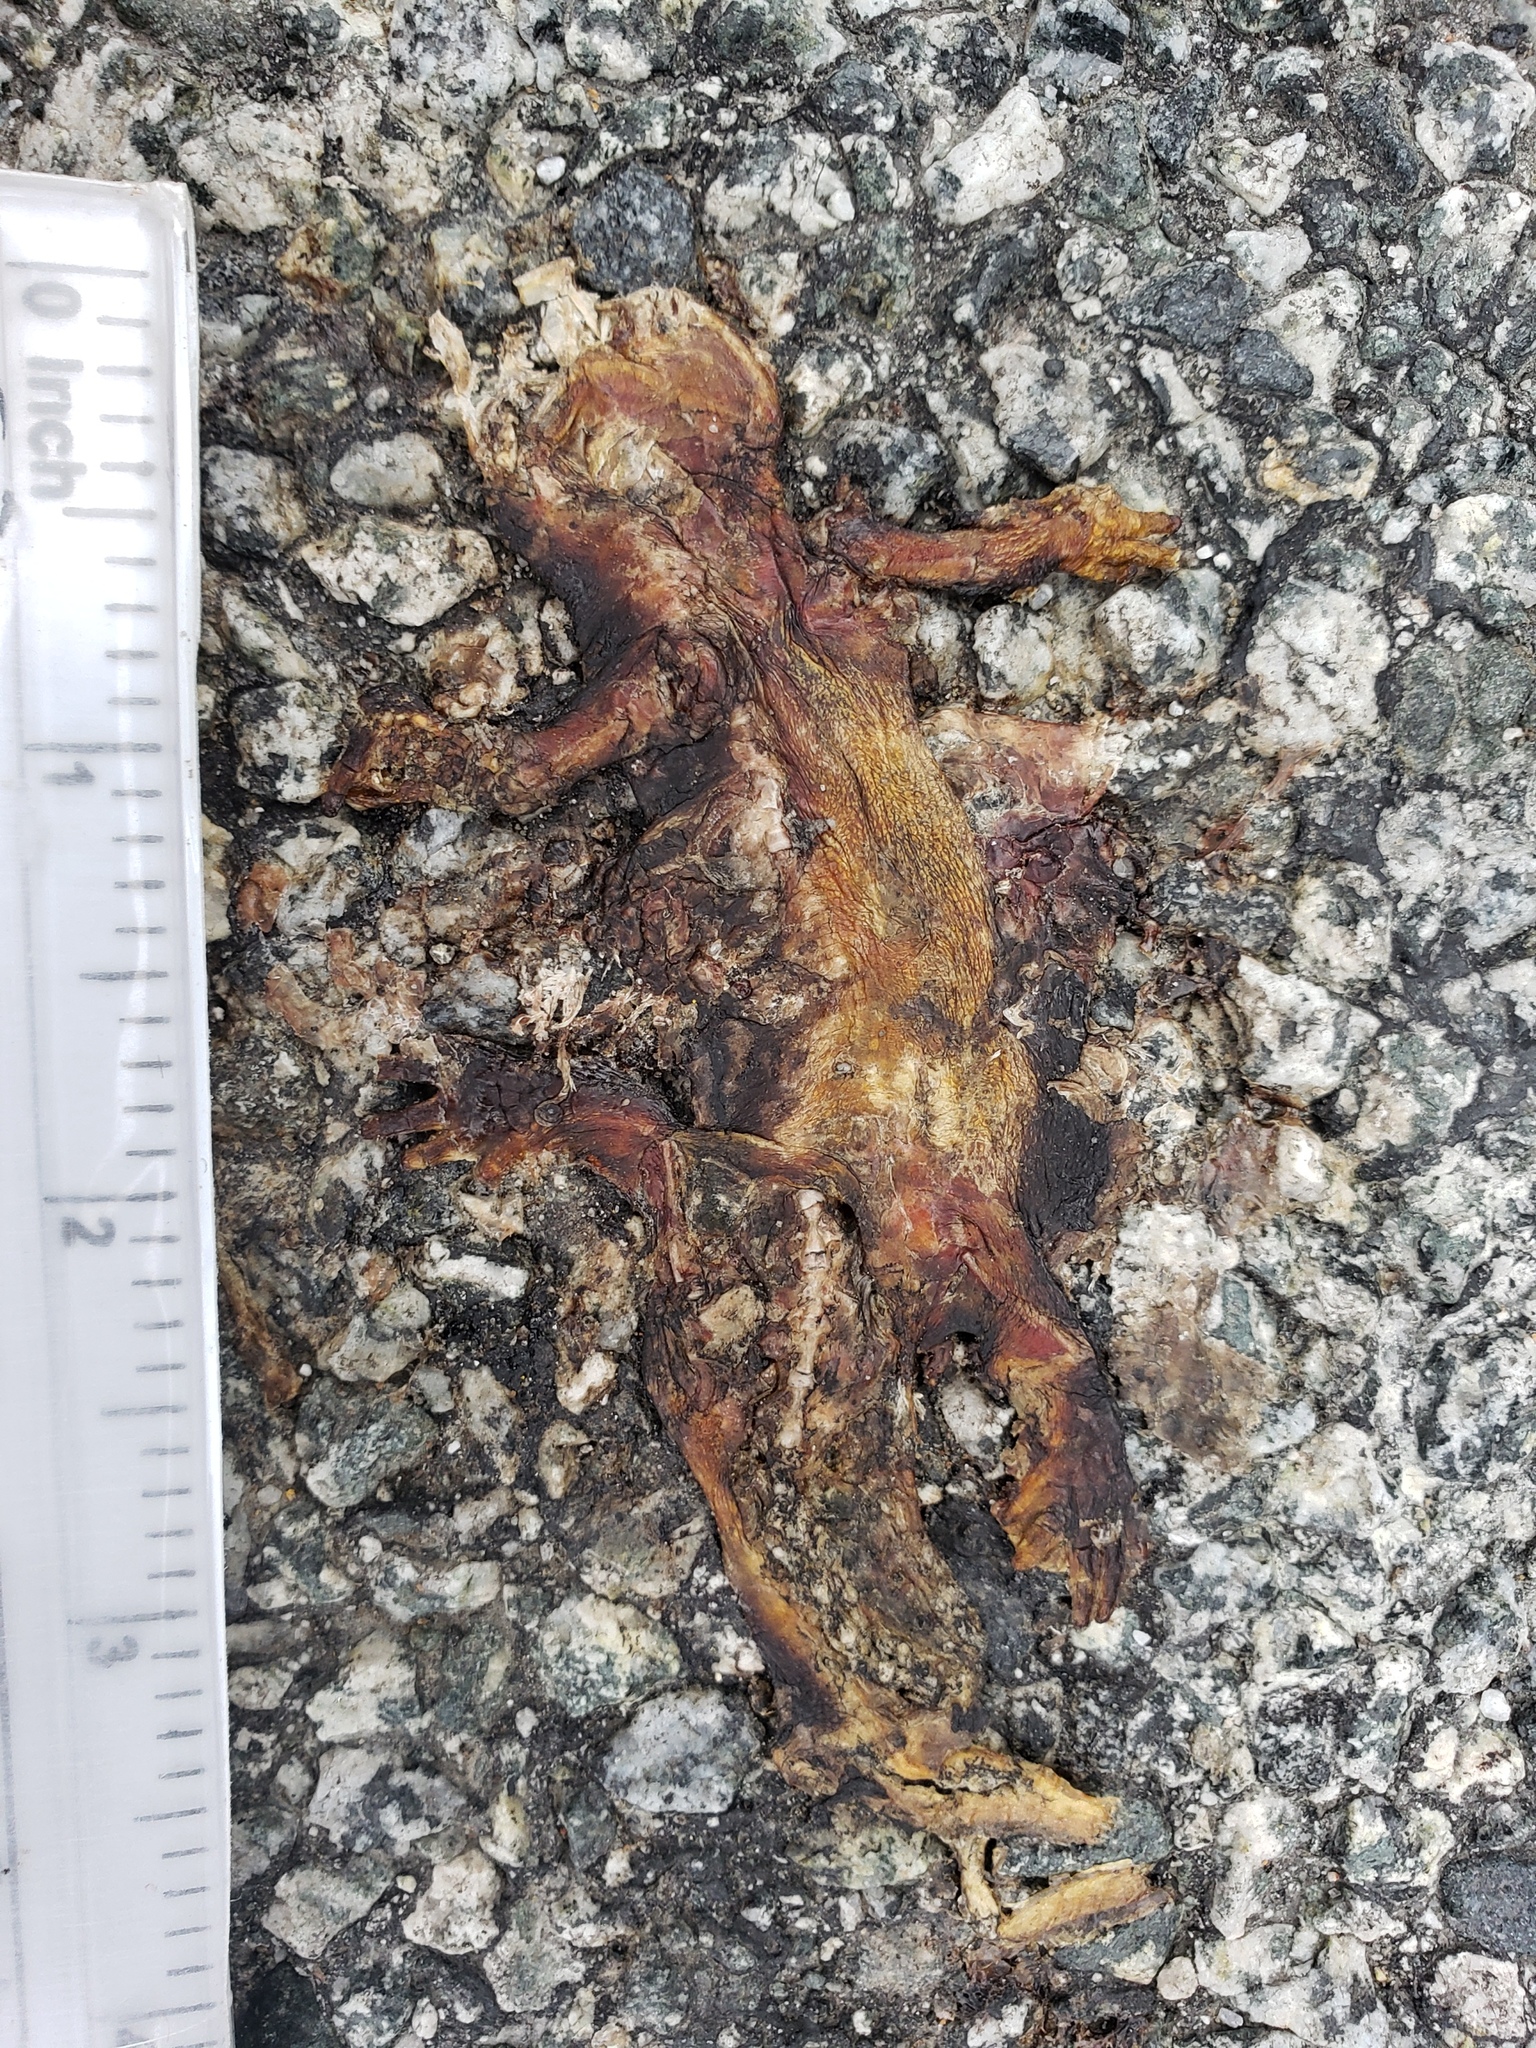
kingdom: Animalia
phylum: Chordata
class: Amphibia
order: Caudata
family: Salamandridae
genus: Taricha
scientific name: Taricha
